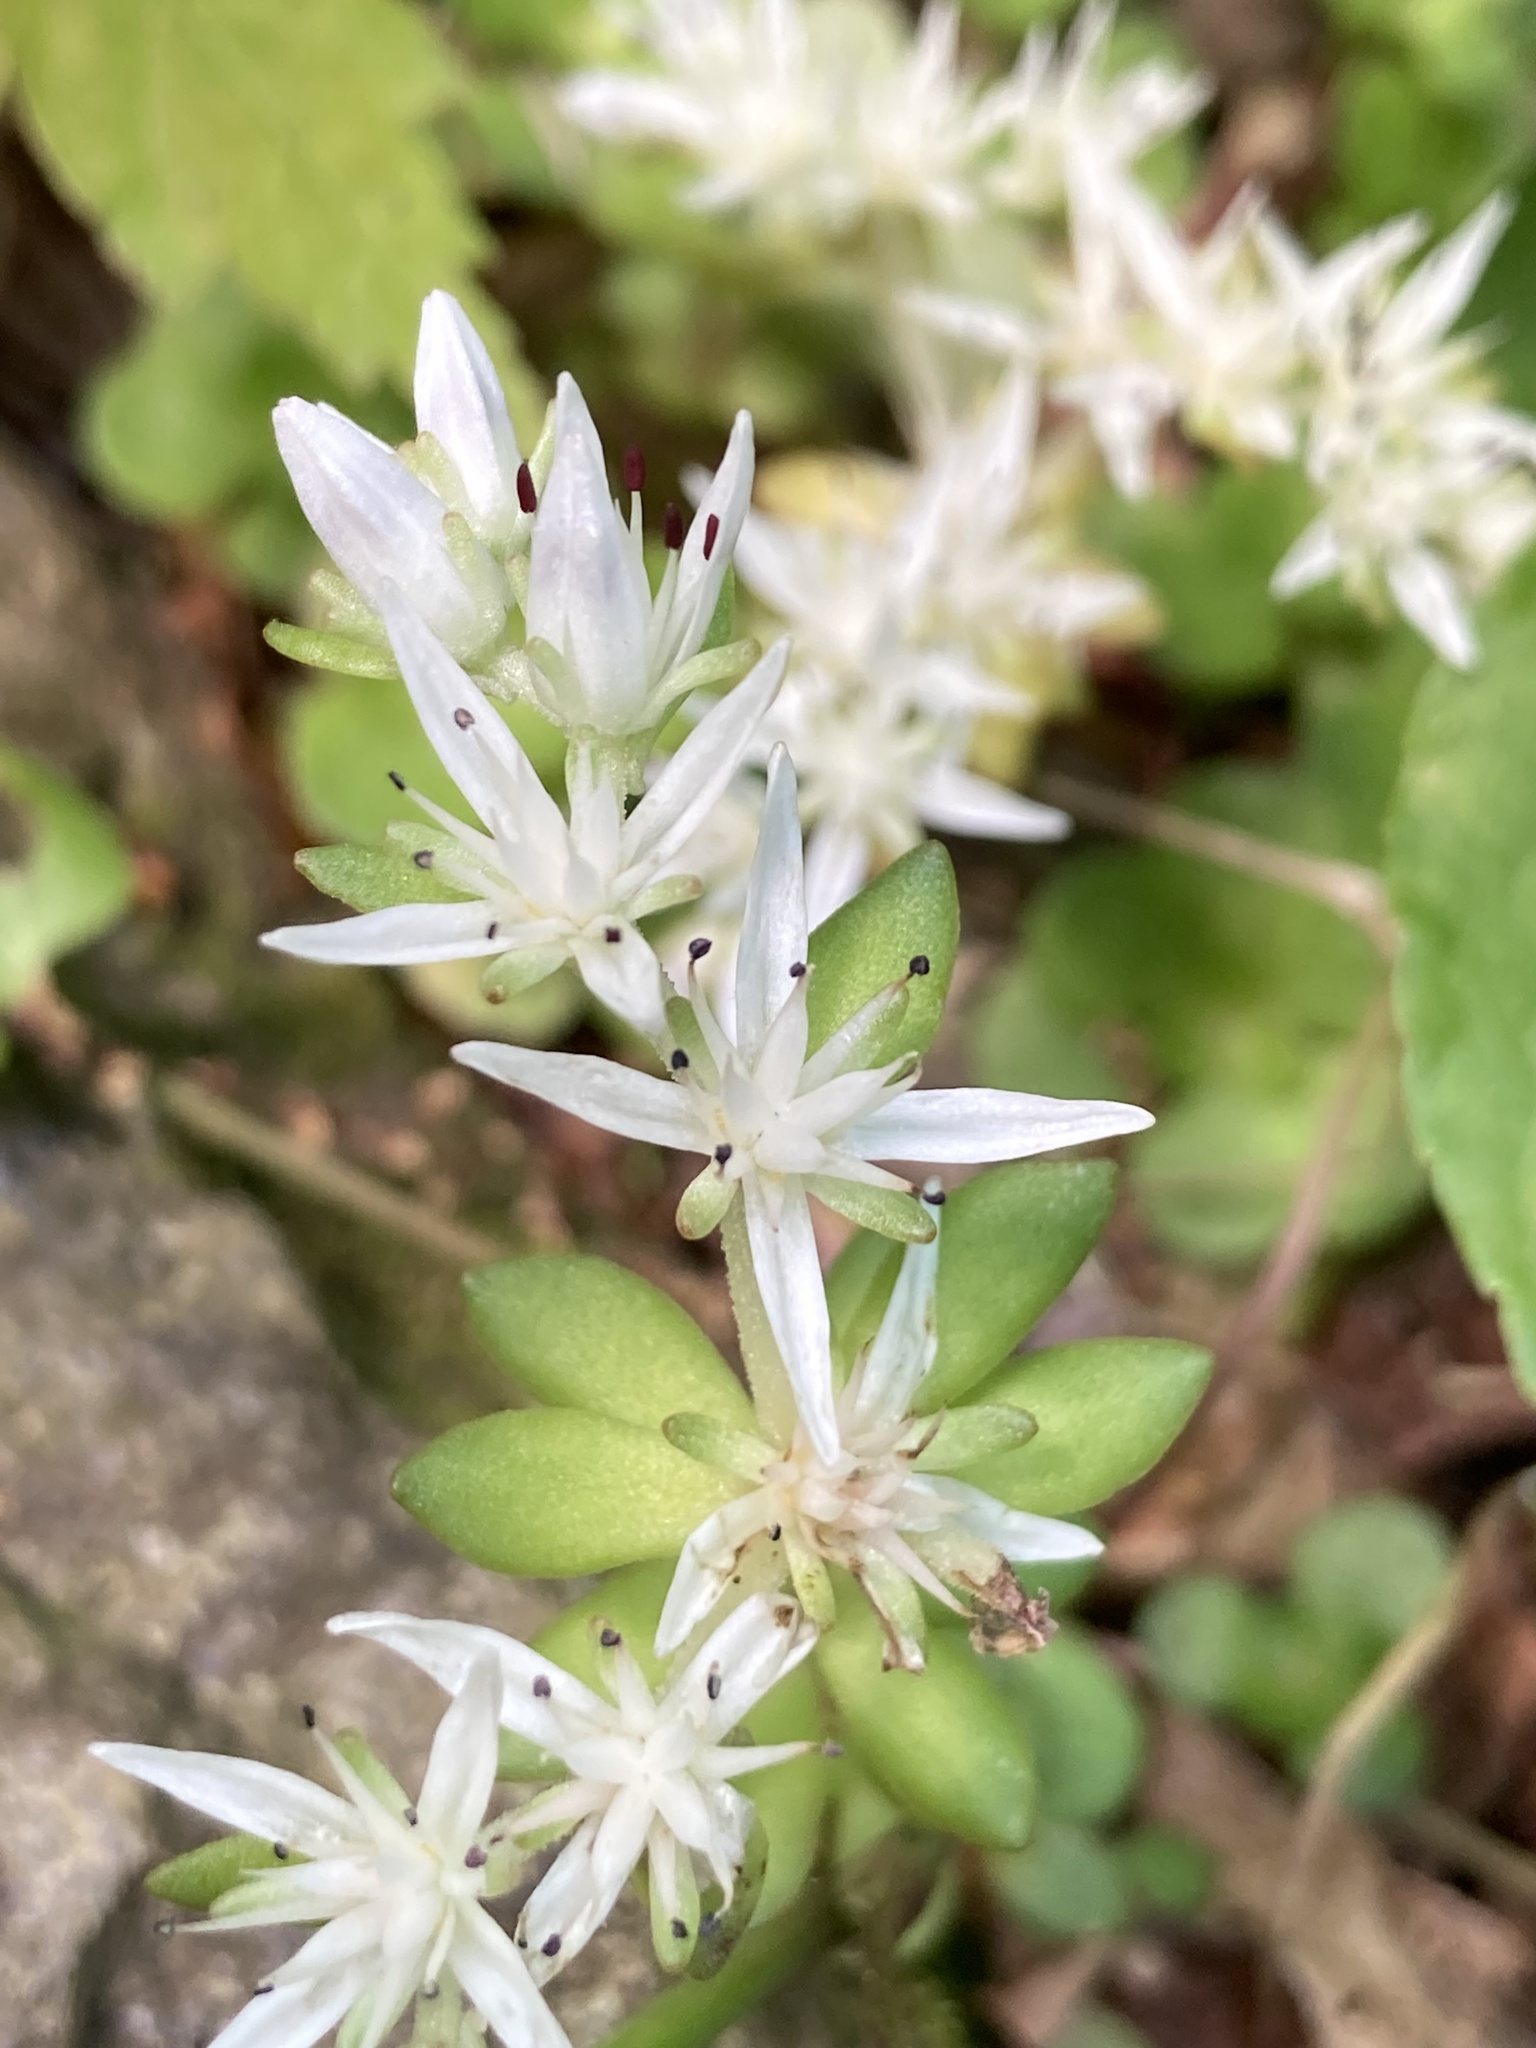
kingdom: Plantae
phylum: Tracheophyta
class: Magnoliopsida
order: Saxifragales
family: Crassulaceae
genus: Sedum
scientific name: Sedum ternatum
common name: Wild stonecrop
